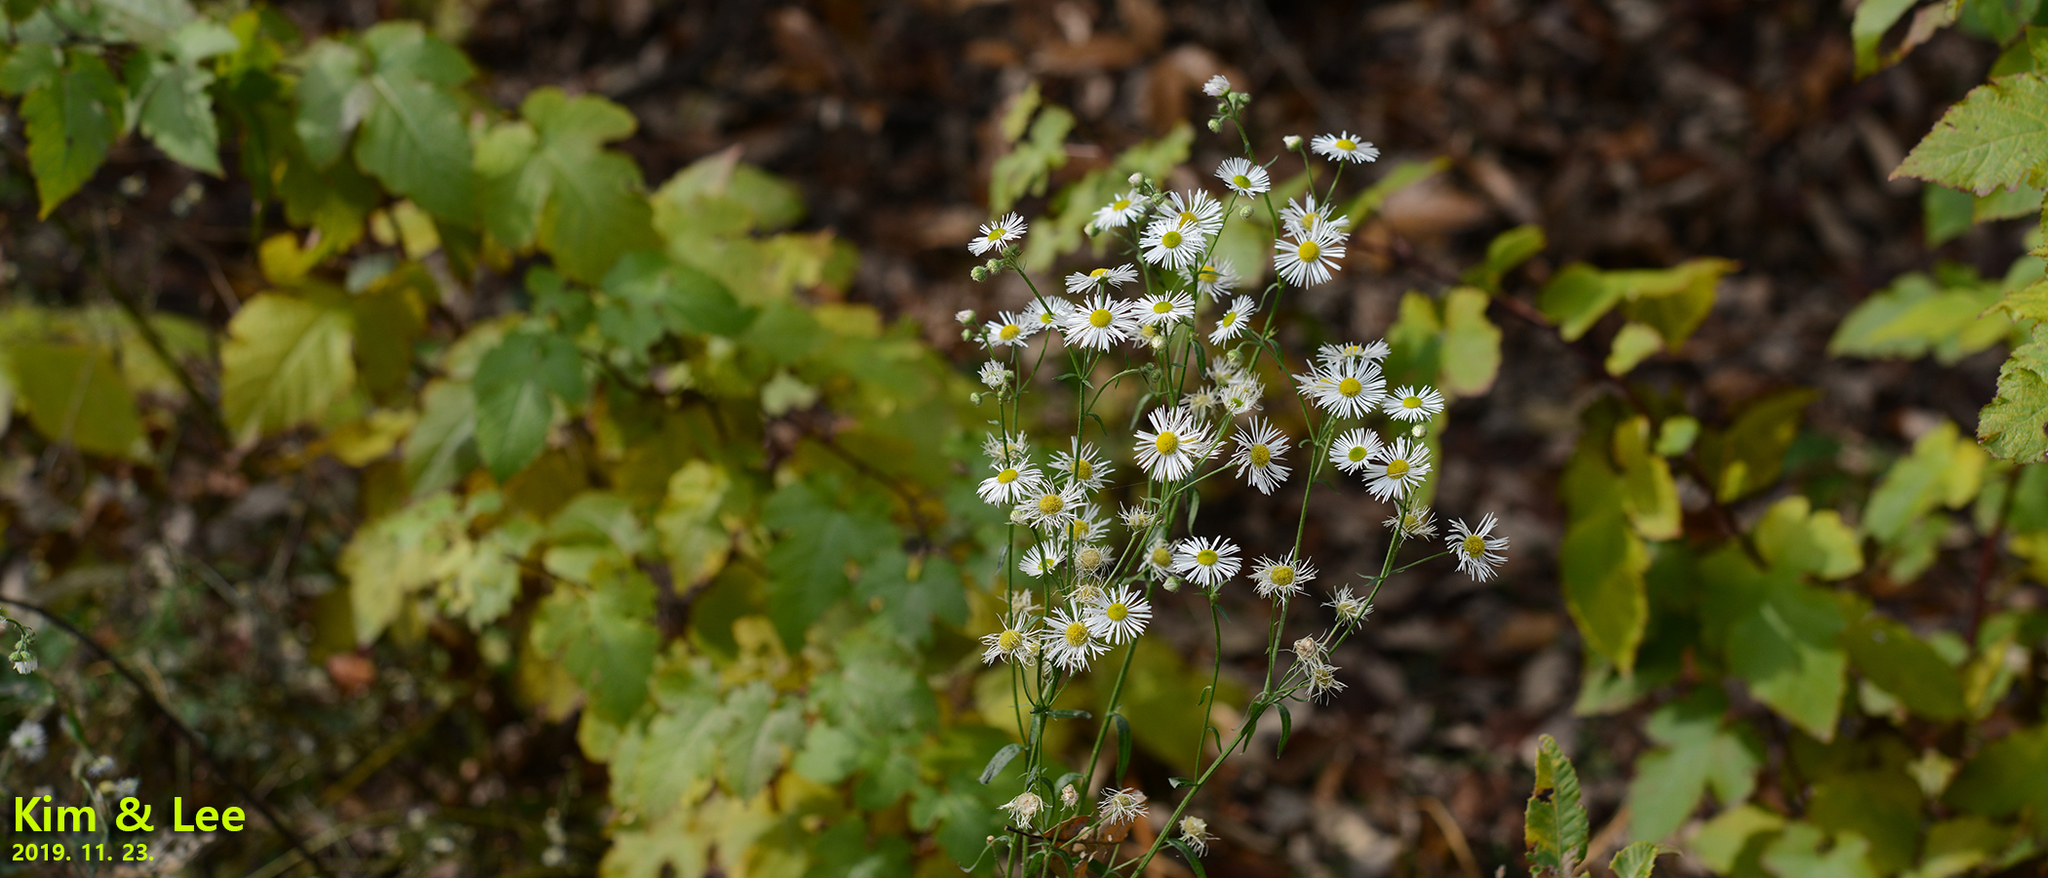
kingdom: Plantae
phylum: Tracheophyta
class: Magnoliopsida
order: Asterales
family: Asteraceae
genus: Erigeron
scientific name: Erigeron annuus
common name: Tall fleabane
